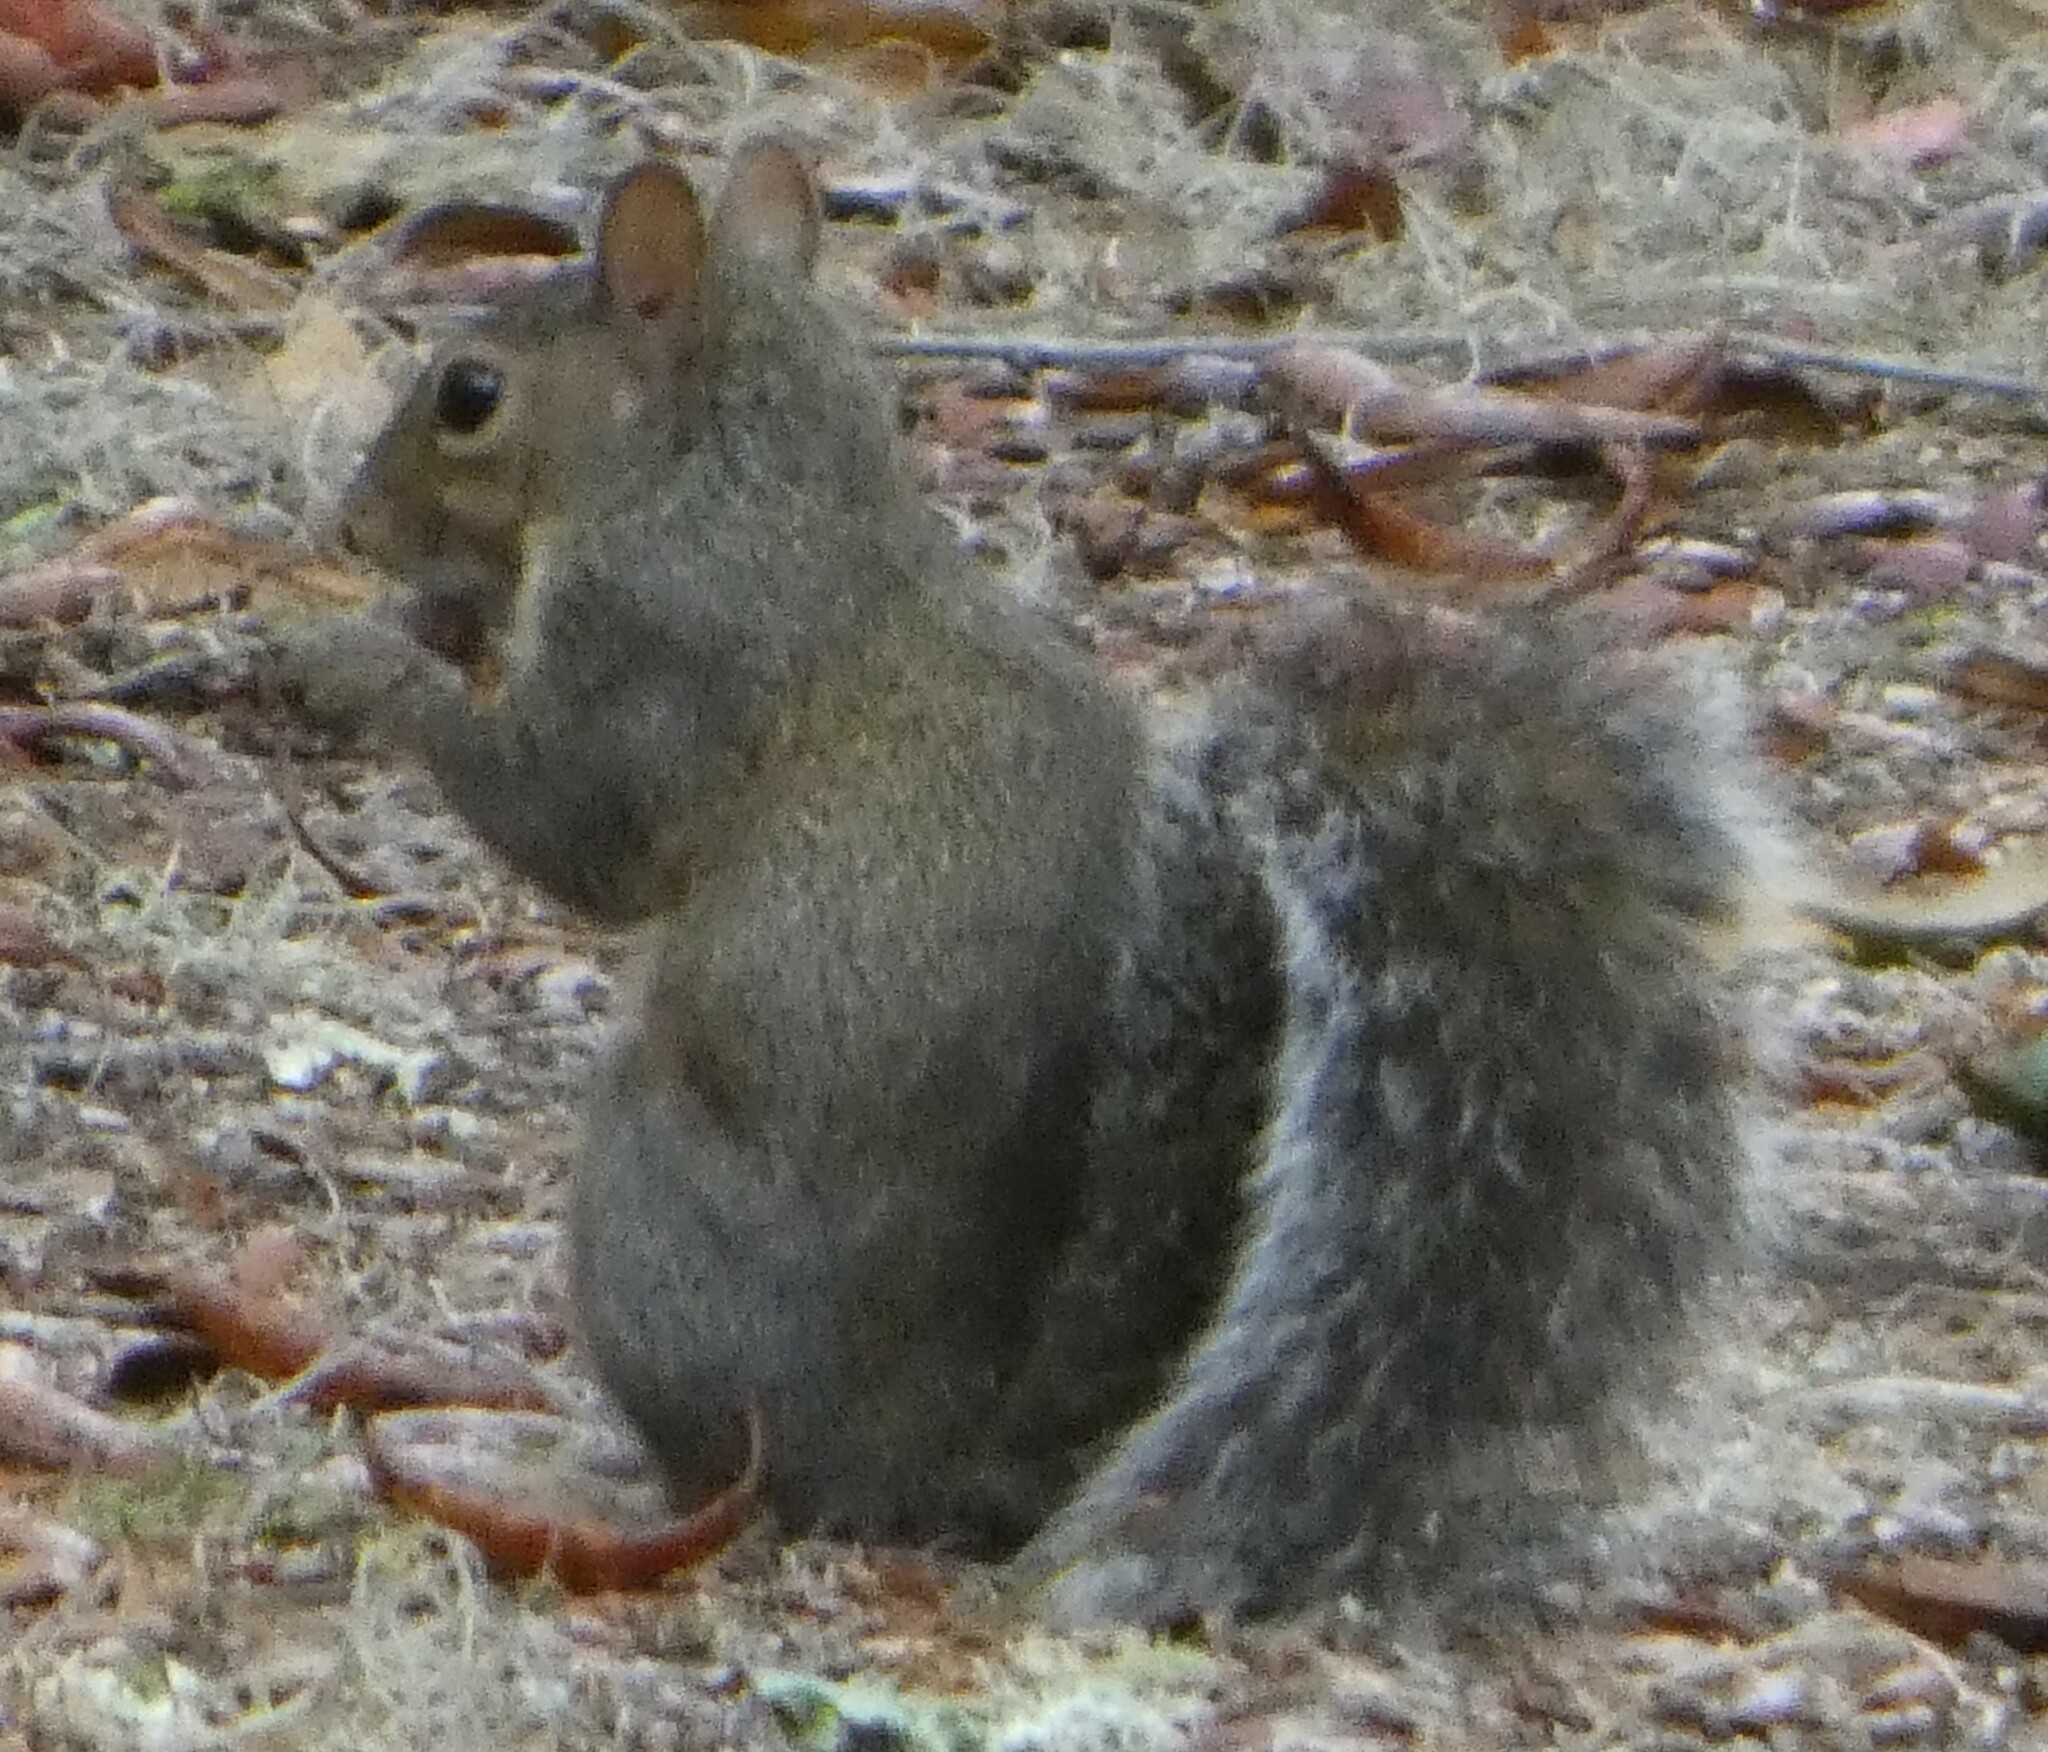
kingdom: Animalia
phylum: Chordata
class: Mammalia
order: Rodentia
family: Sciuridae
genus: Sciurus
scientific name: Sciurus carolinensis
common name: Eastern gray squirrel
